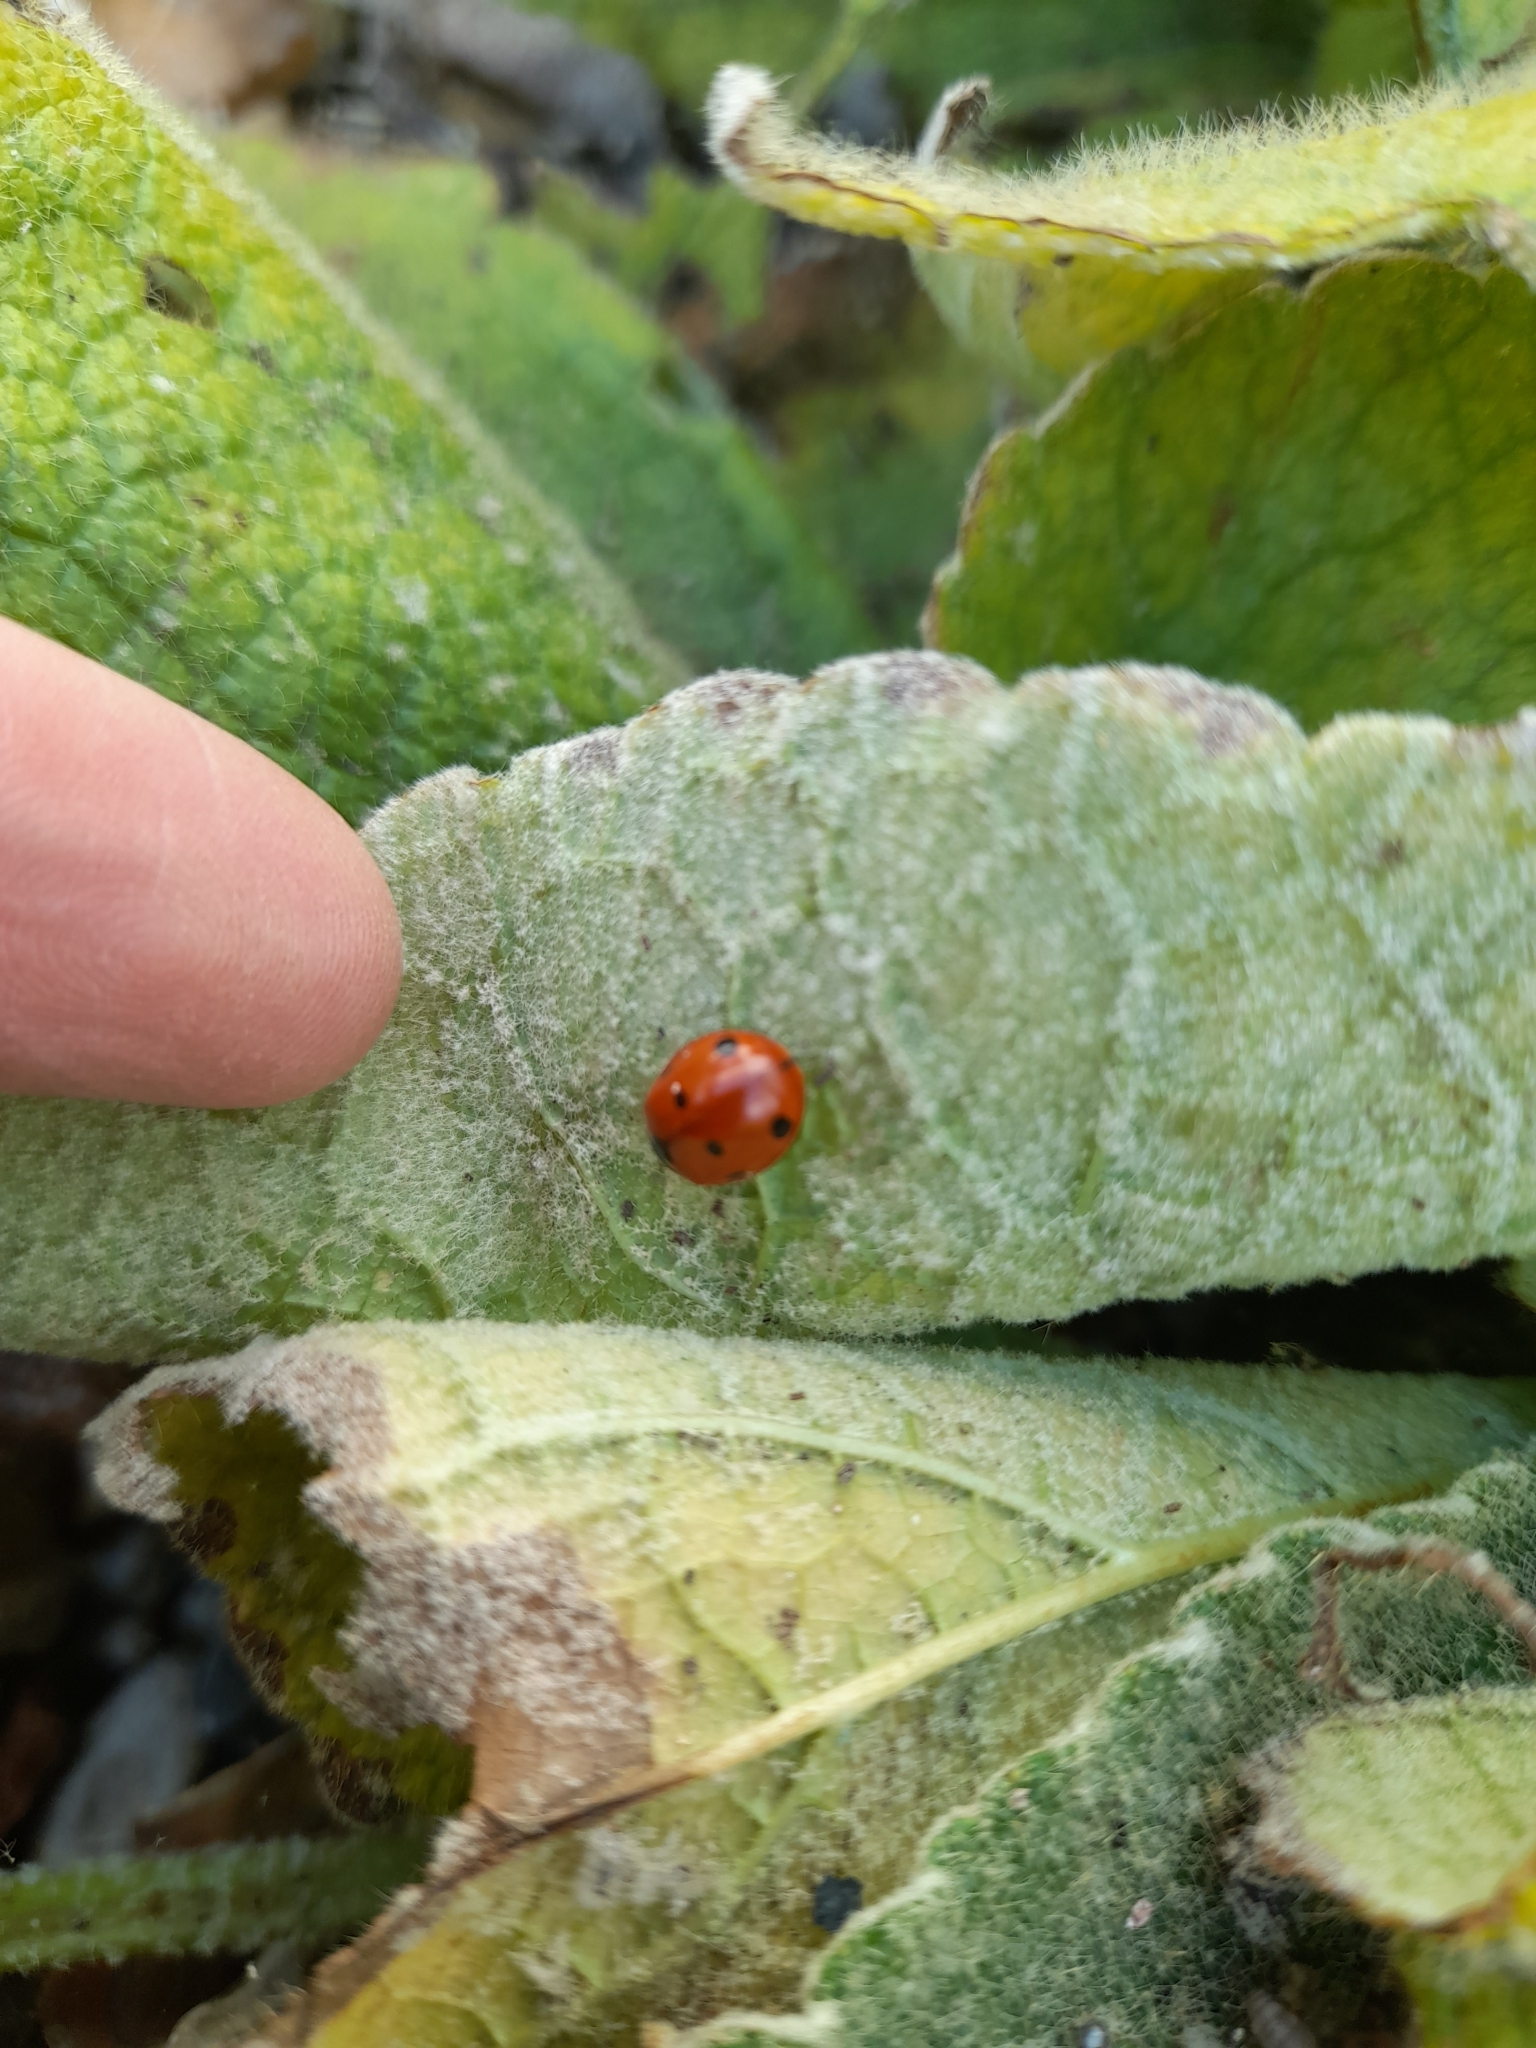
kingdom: Animalia
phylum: Arthropoda
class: Insecta
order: Coleoptera
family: Coccinellidae
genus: Coccinella
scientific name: Coccinella septempunctata
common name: Sevenspotted lady beetle
